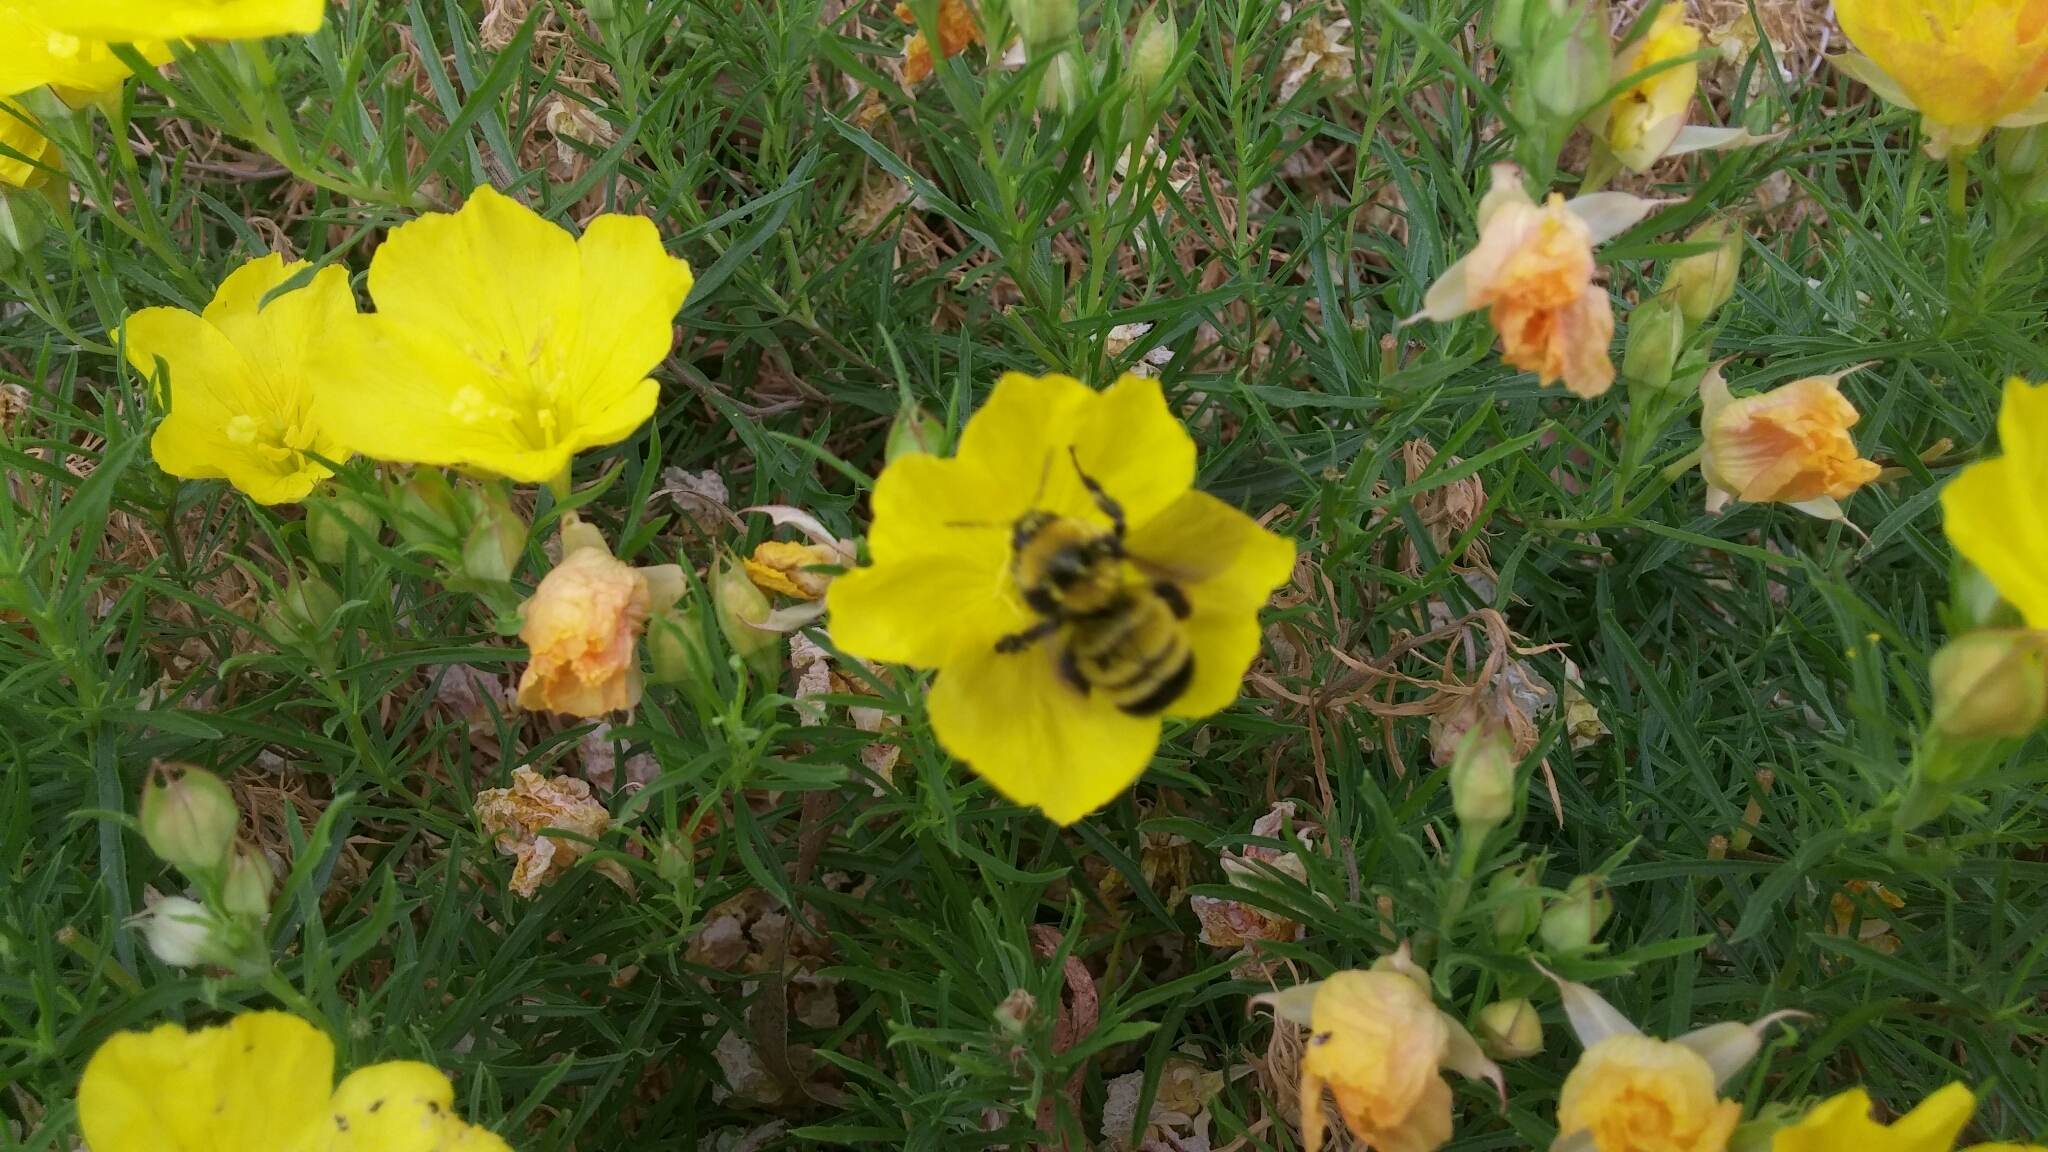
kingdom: Animalia
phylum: Arthropoda
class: Insecta
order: Hymenoptera
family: Apidae
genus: Bombus
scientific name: Bombus sonorus
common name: Sonoran bumble bee
